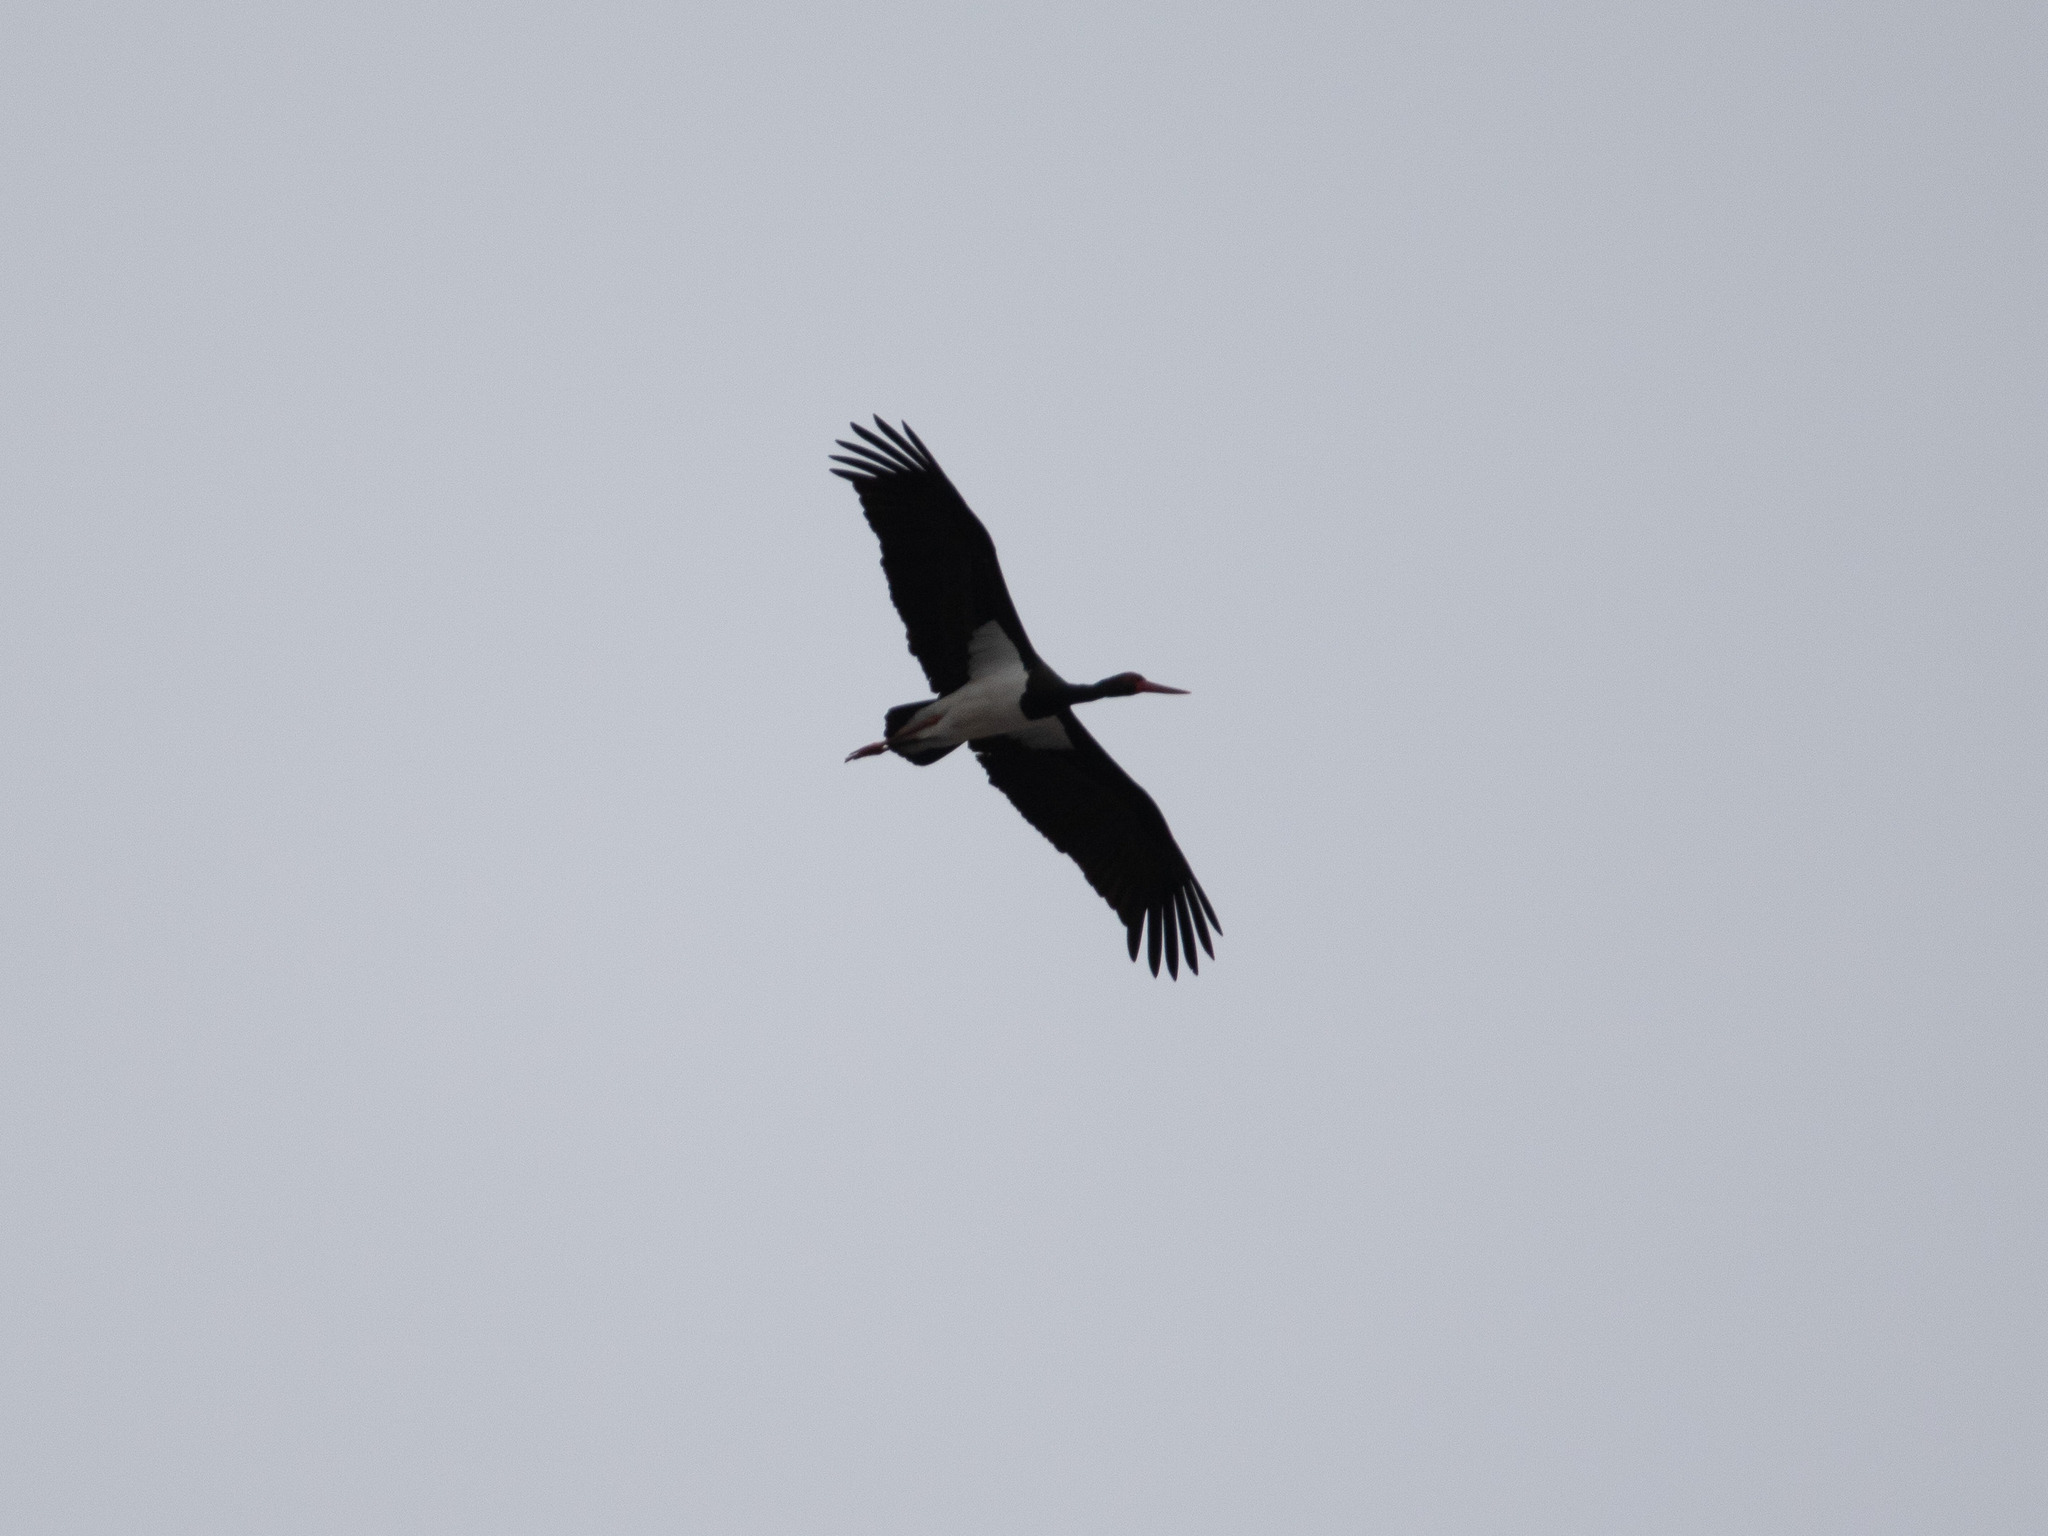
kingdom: Animalia
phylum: Chordata
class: Aves
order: Ciconiiformes
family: Ciconiidae
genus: Ciconia
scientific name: Ciconia nigra
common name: Black stork
